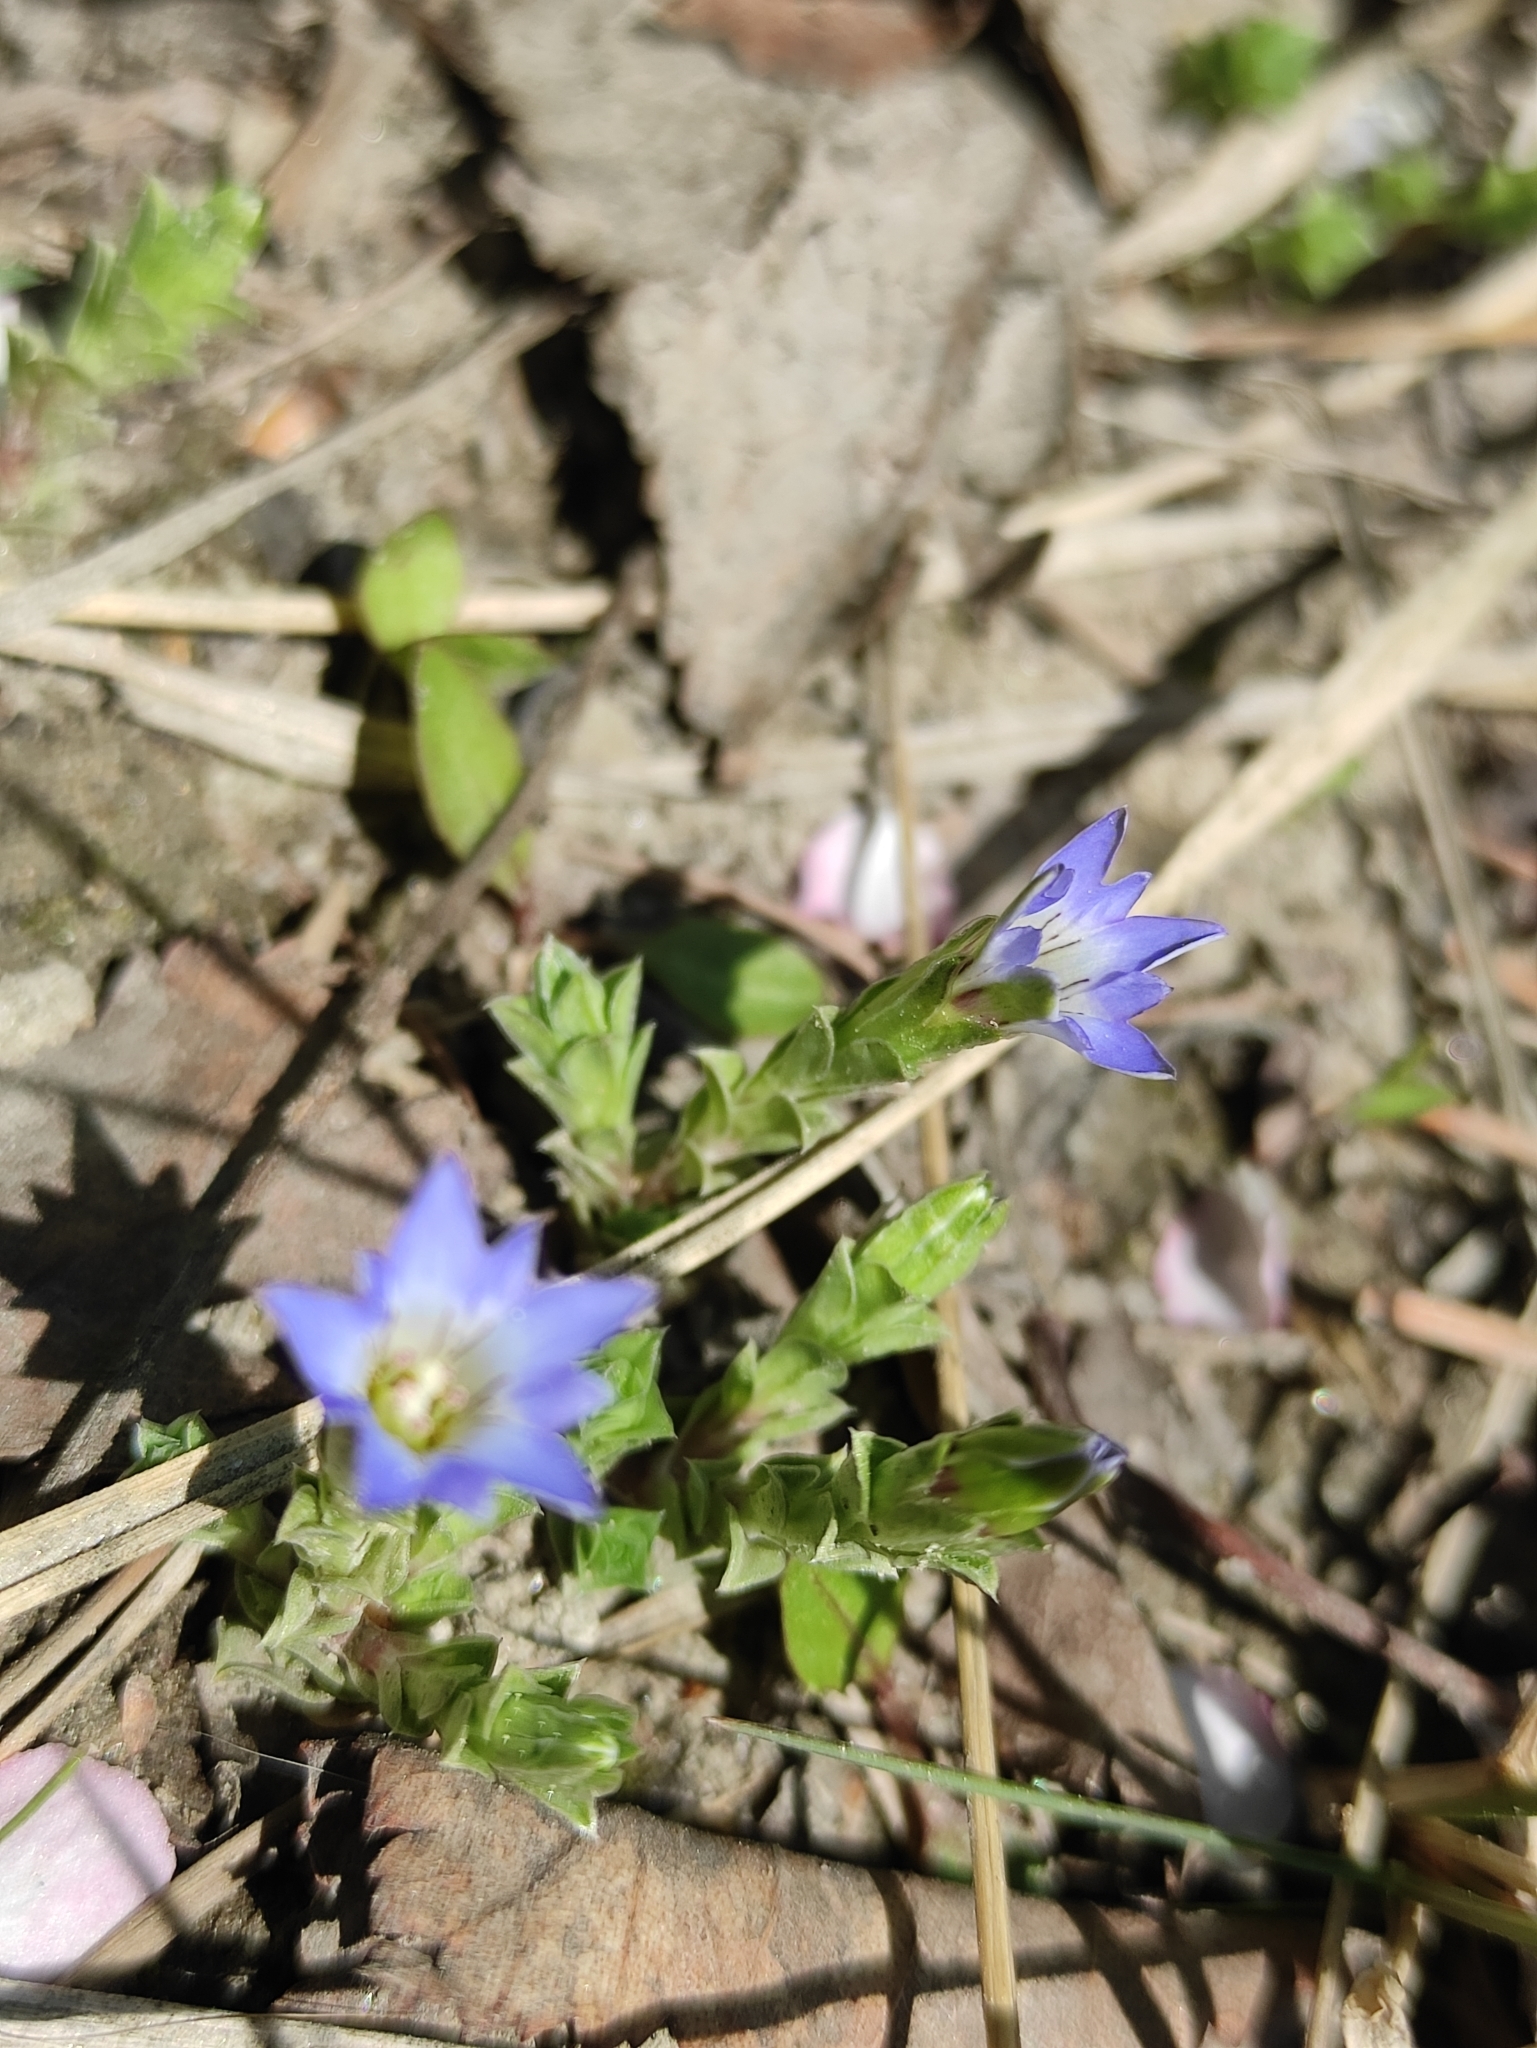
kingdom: Plantae
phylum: Tracheophyta
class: Magnoliopsida
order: Gentianales
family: Gentianaceae
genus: Gentiana
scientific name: Gentiana squarrosa
